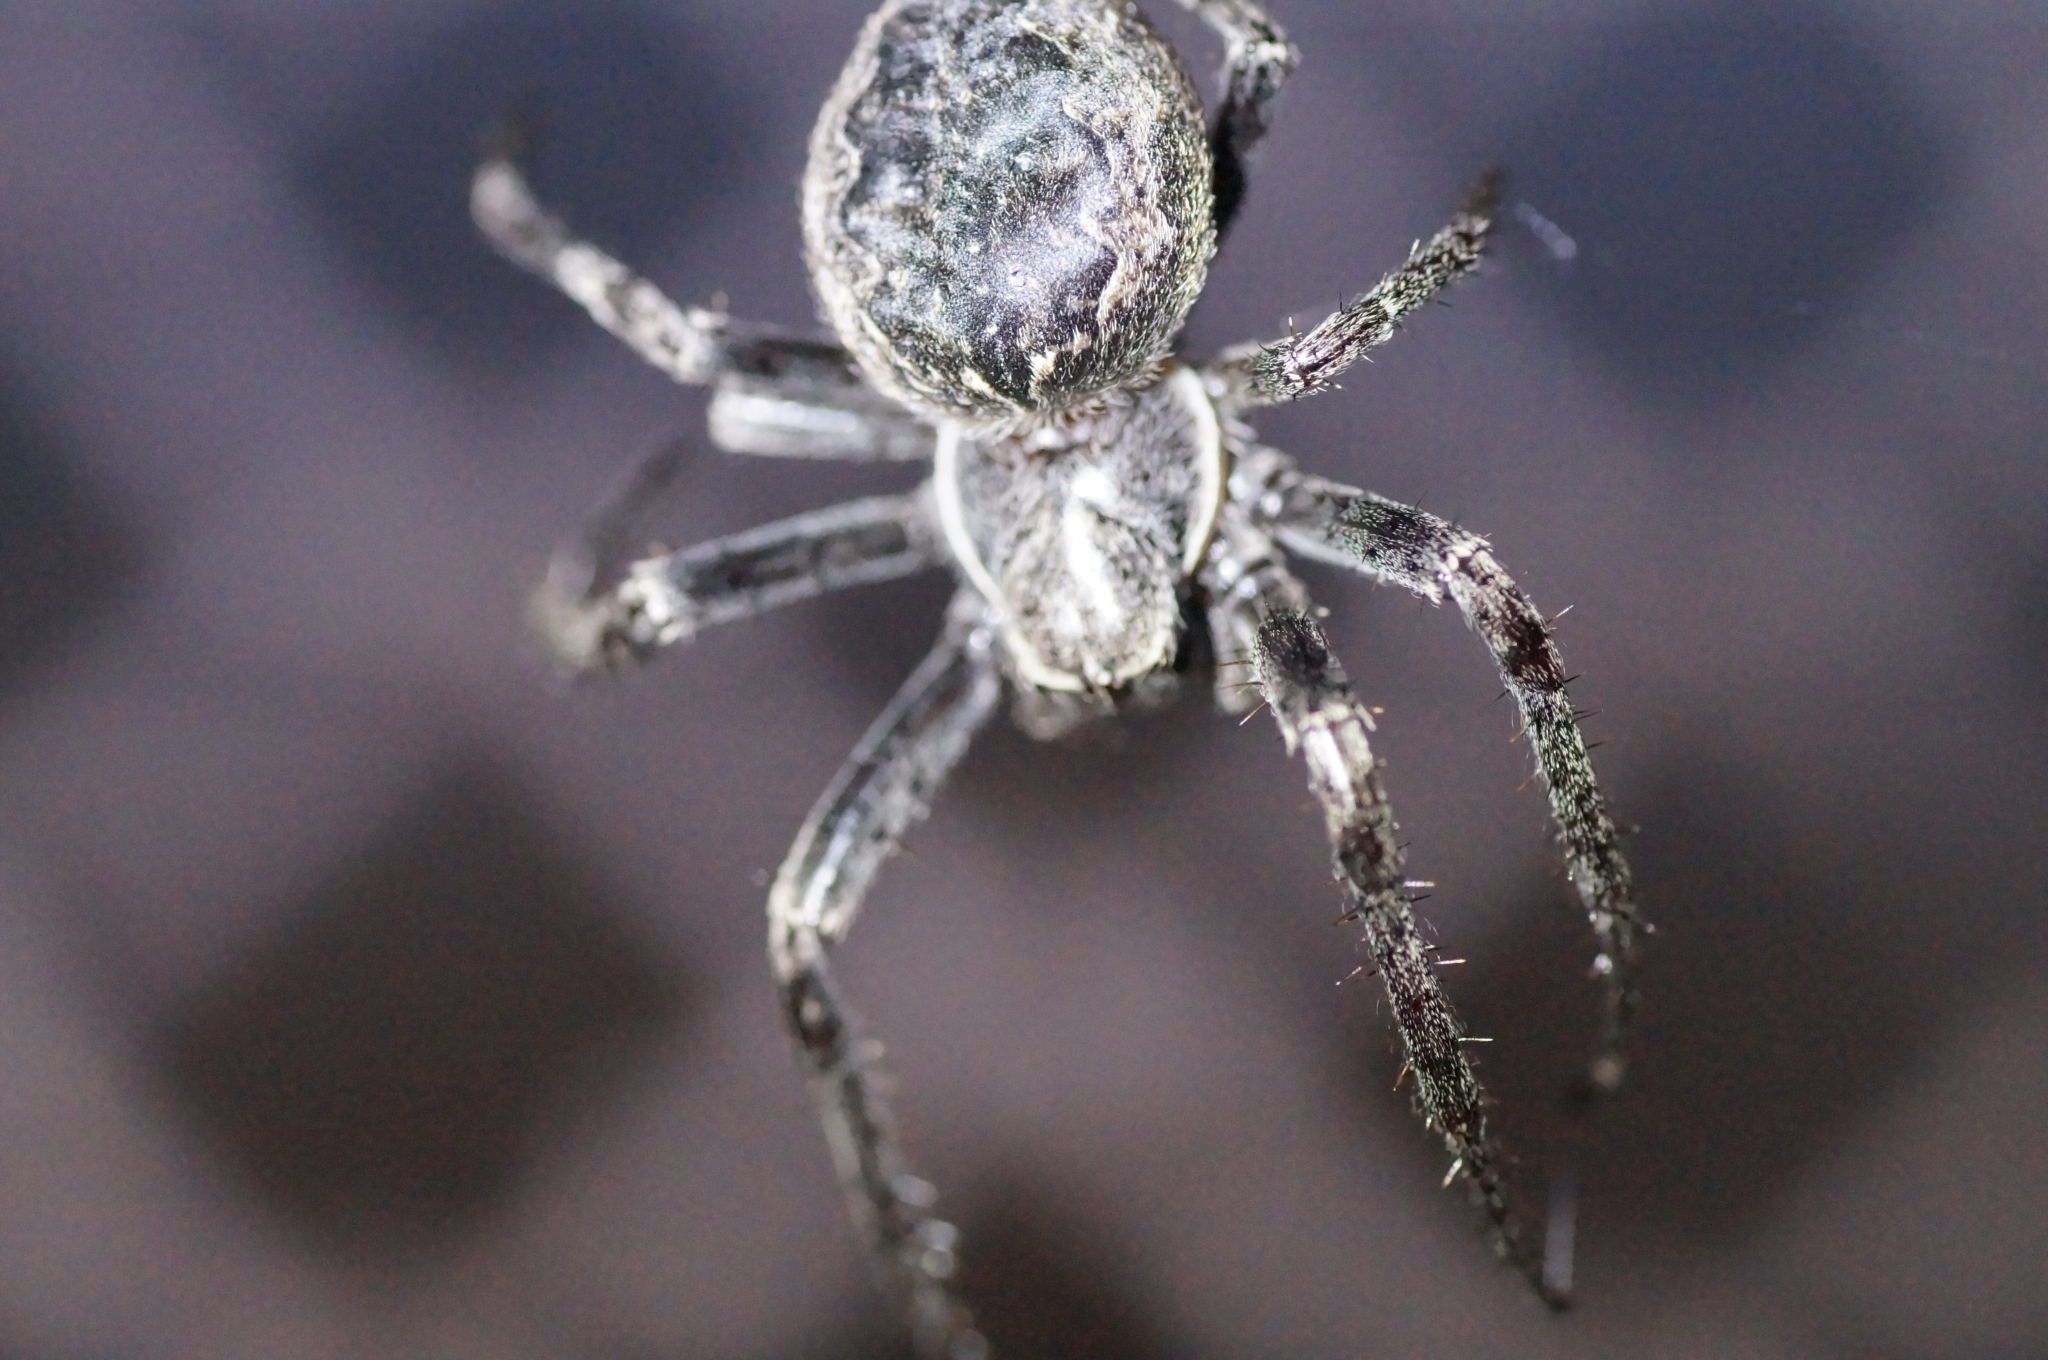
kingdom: Animalia
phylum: Arthropoda
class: Arachnida
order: Araneae
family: Araneidae
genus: Larinioides
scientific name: Larinioides ixobolus
